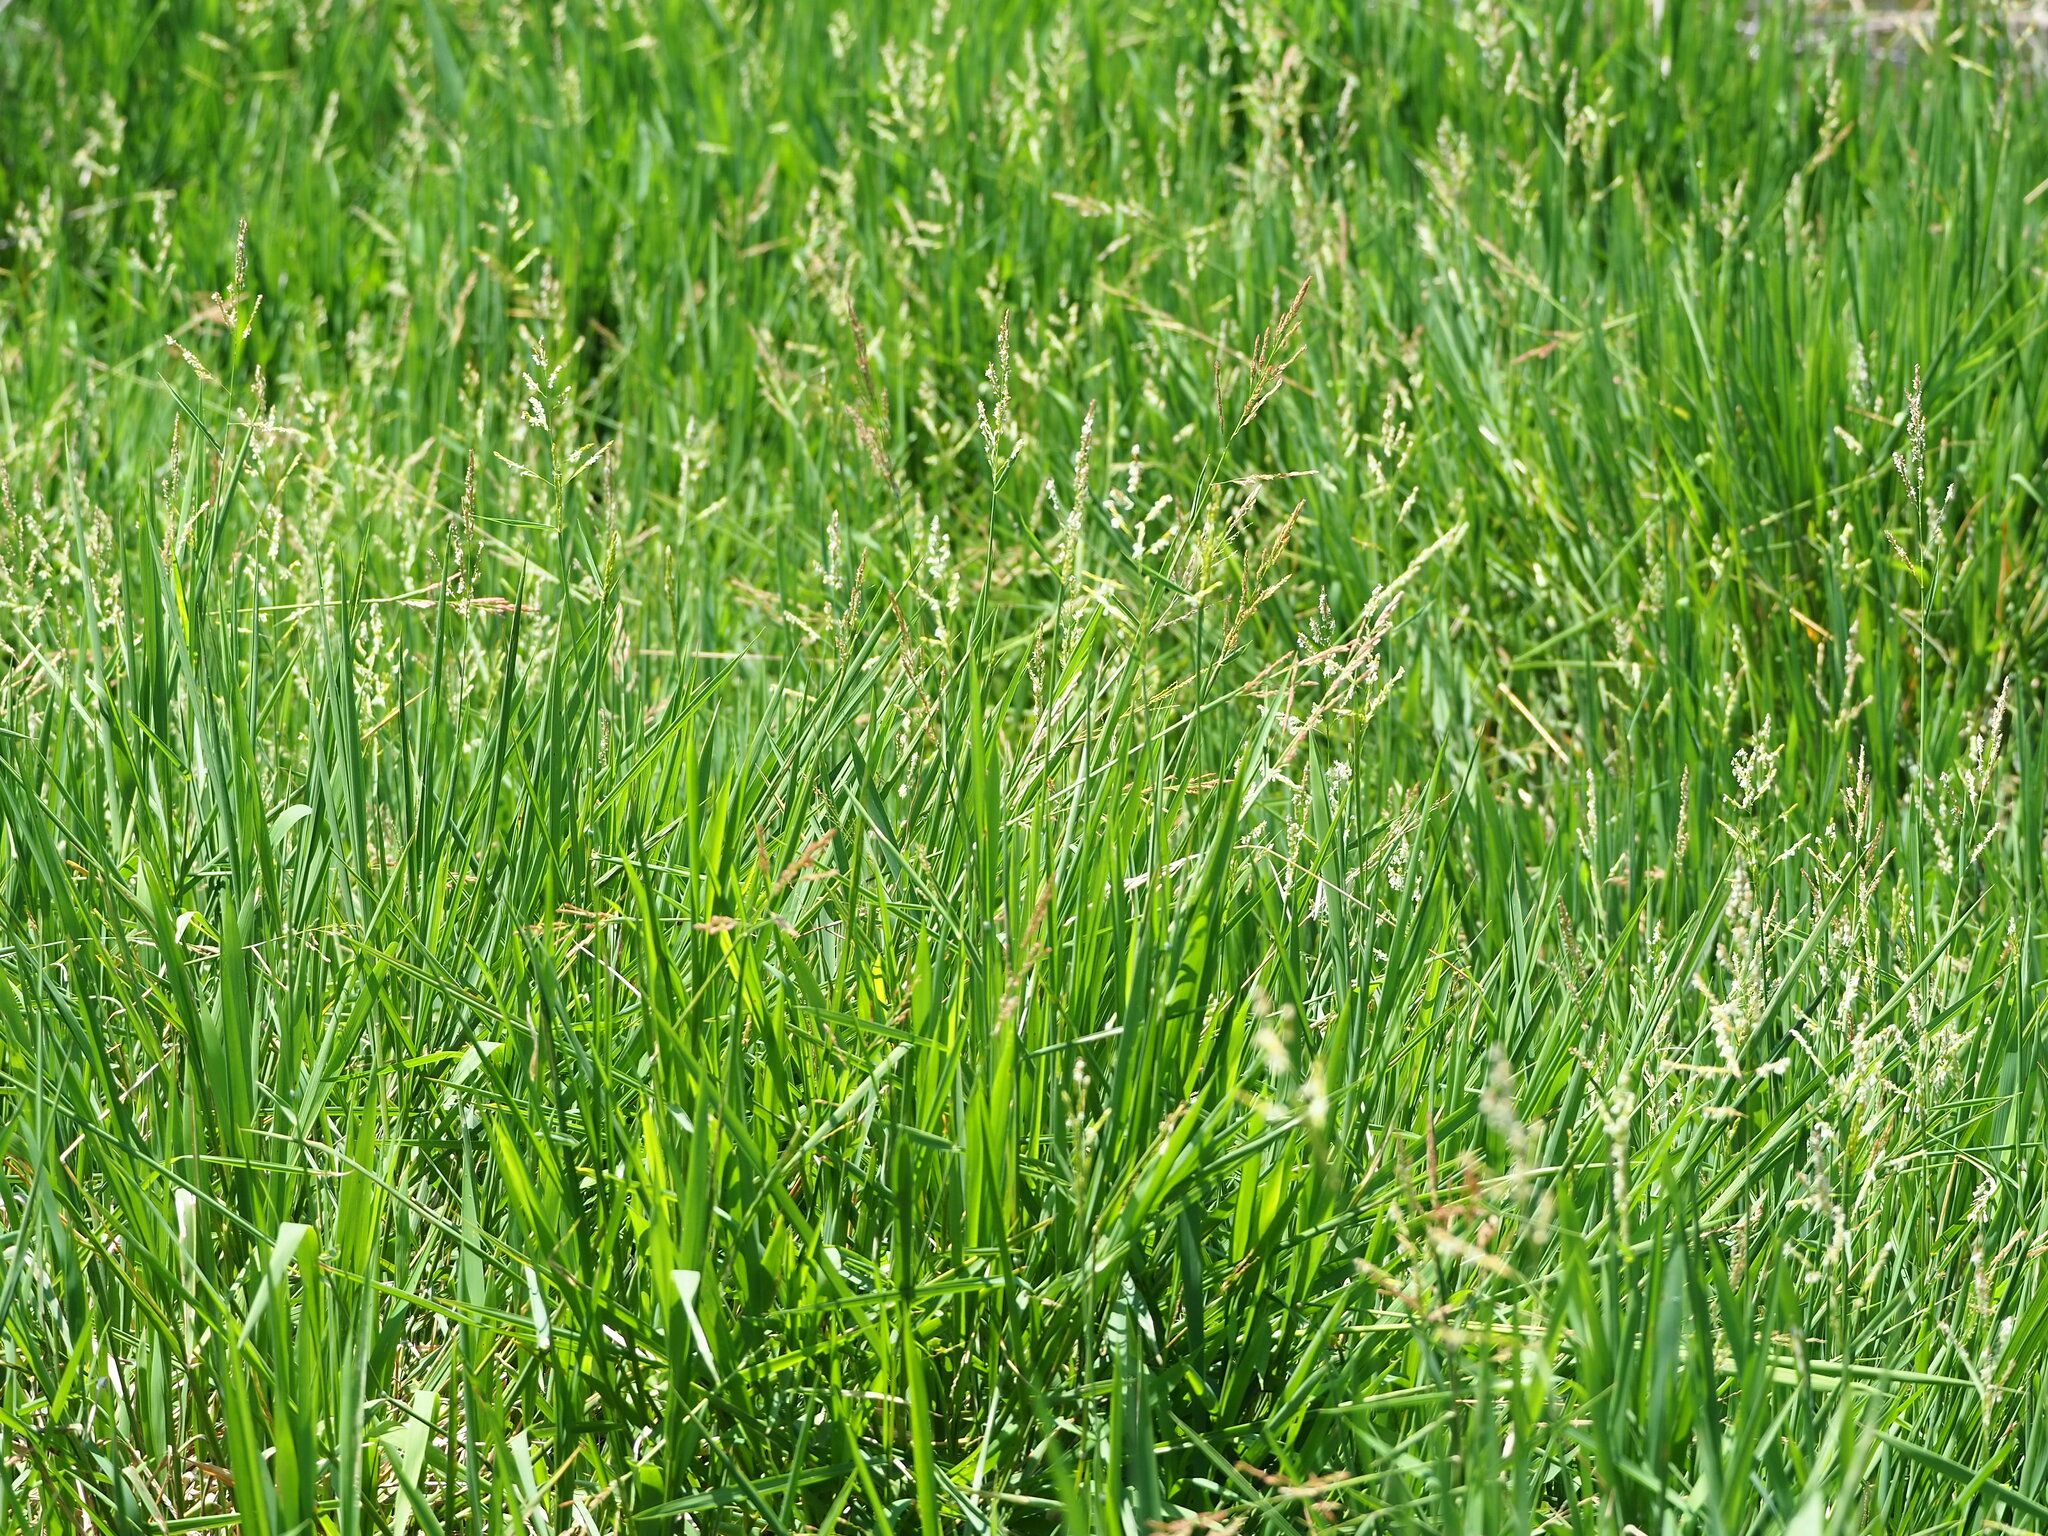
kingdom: Plantae
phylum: Tracheophyta
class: Liliopsida
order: Poales
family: Poaceae
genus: Leersia
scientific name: Leersia hexandra
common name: Southern cut grass
